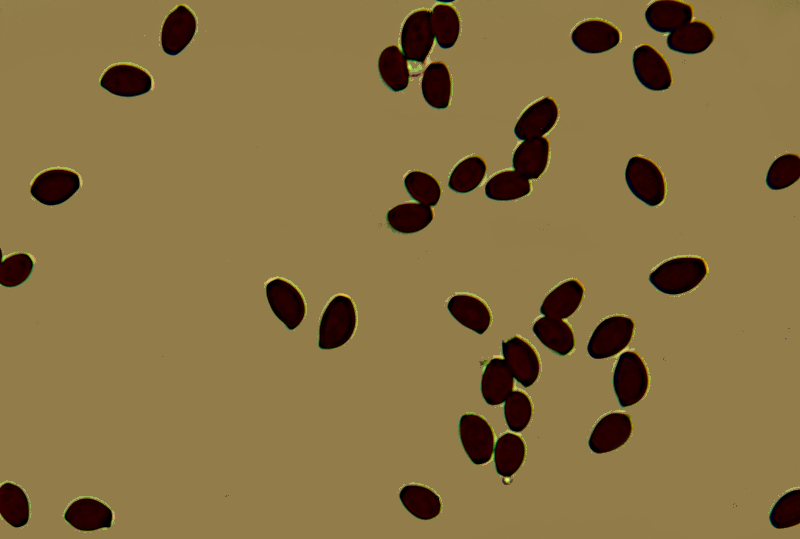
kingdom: Fungi
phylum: Basidiomycota
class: Agaricomycetes
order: Agaricales
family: Psathyrellaceae
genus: Coprinellus
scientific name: Coprinellus micaceus
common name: Glistening ink-cap
